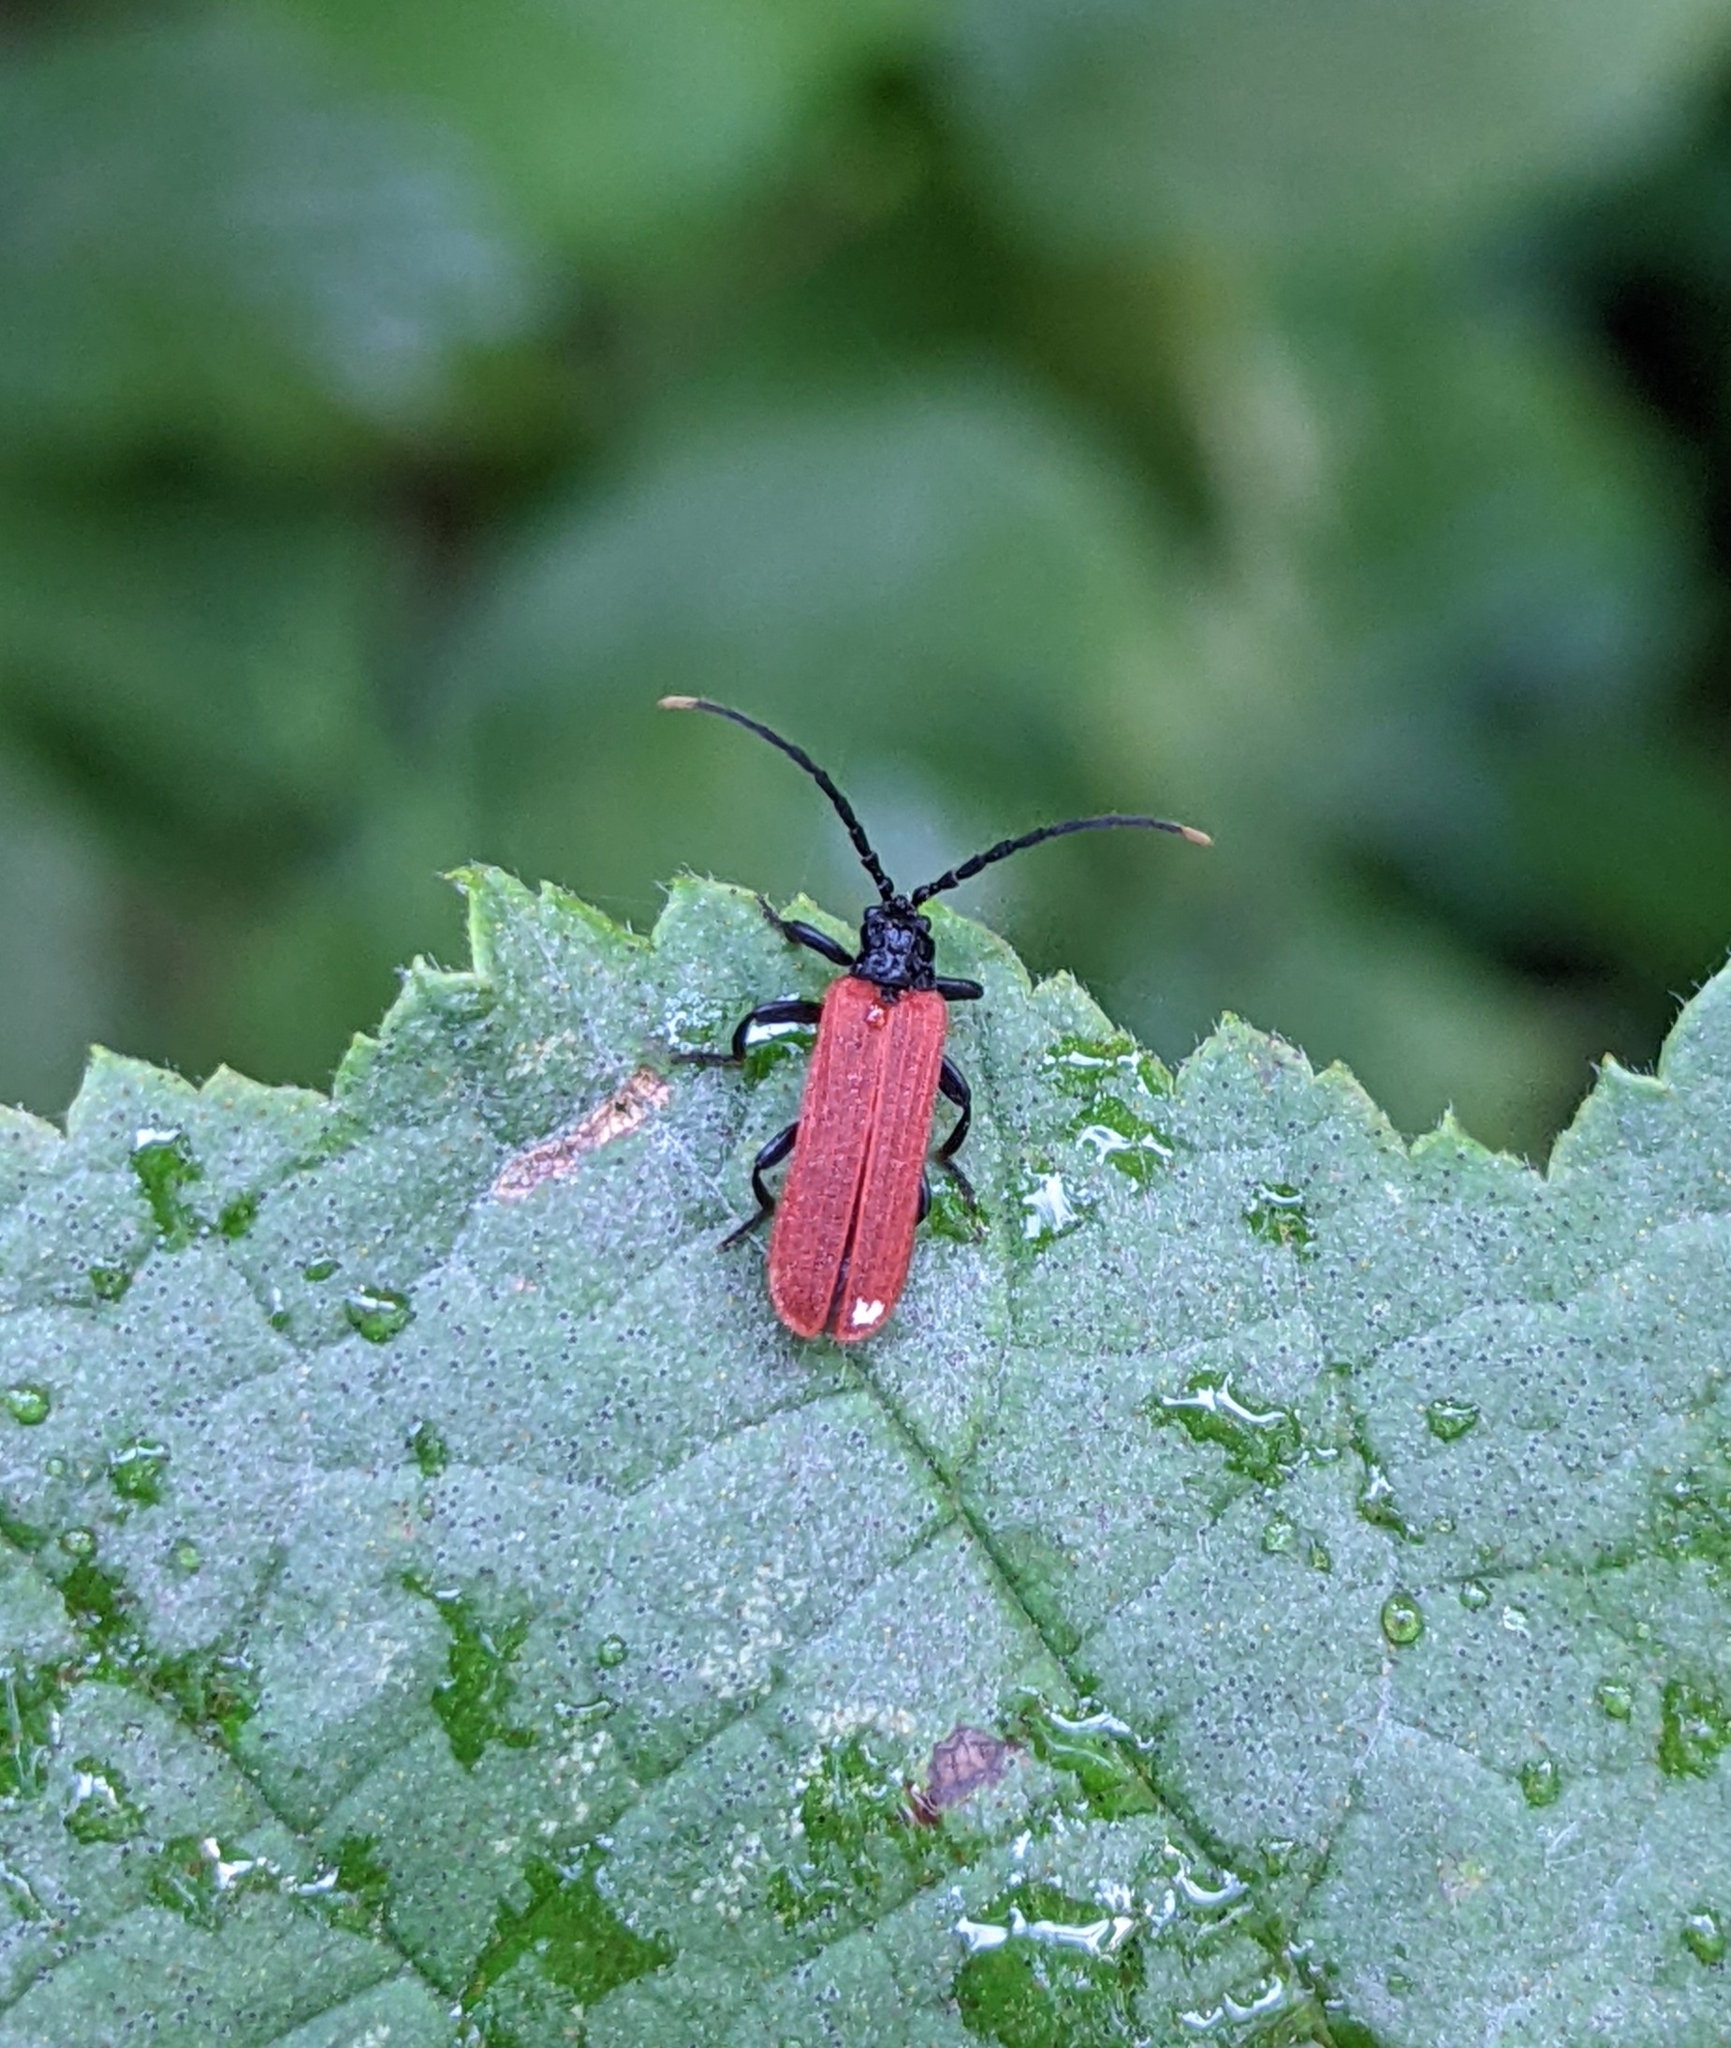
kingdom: Animalia
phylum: Arthropoda
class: Insecta
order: Coleoptera
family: Lycidae
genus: Platycis
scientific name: Platycis minutus
